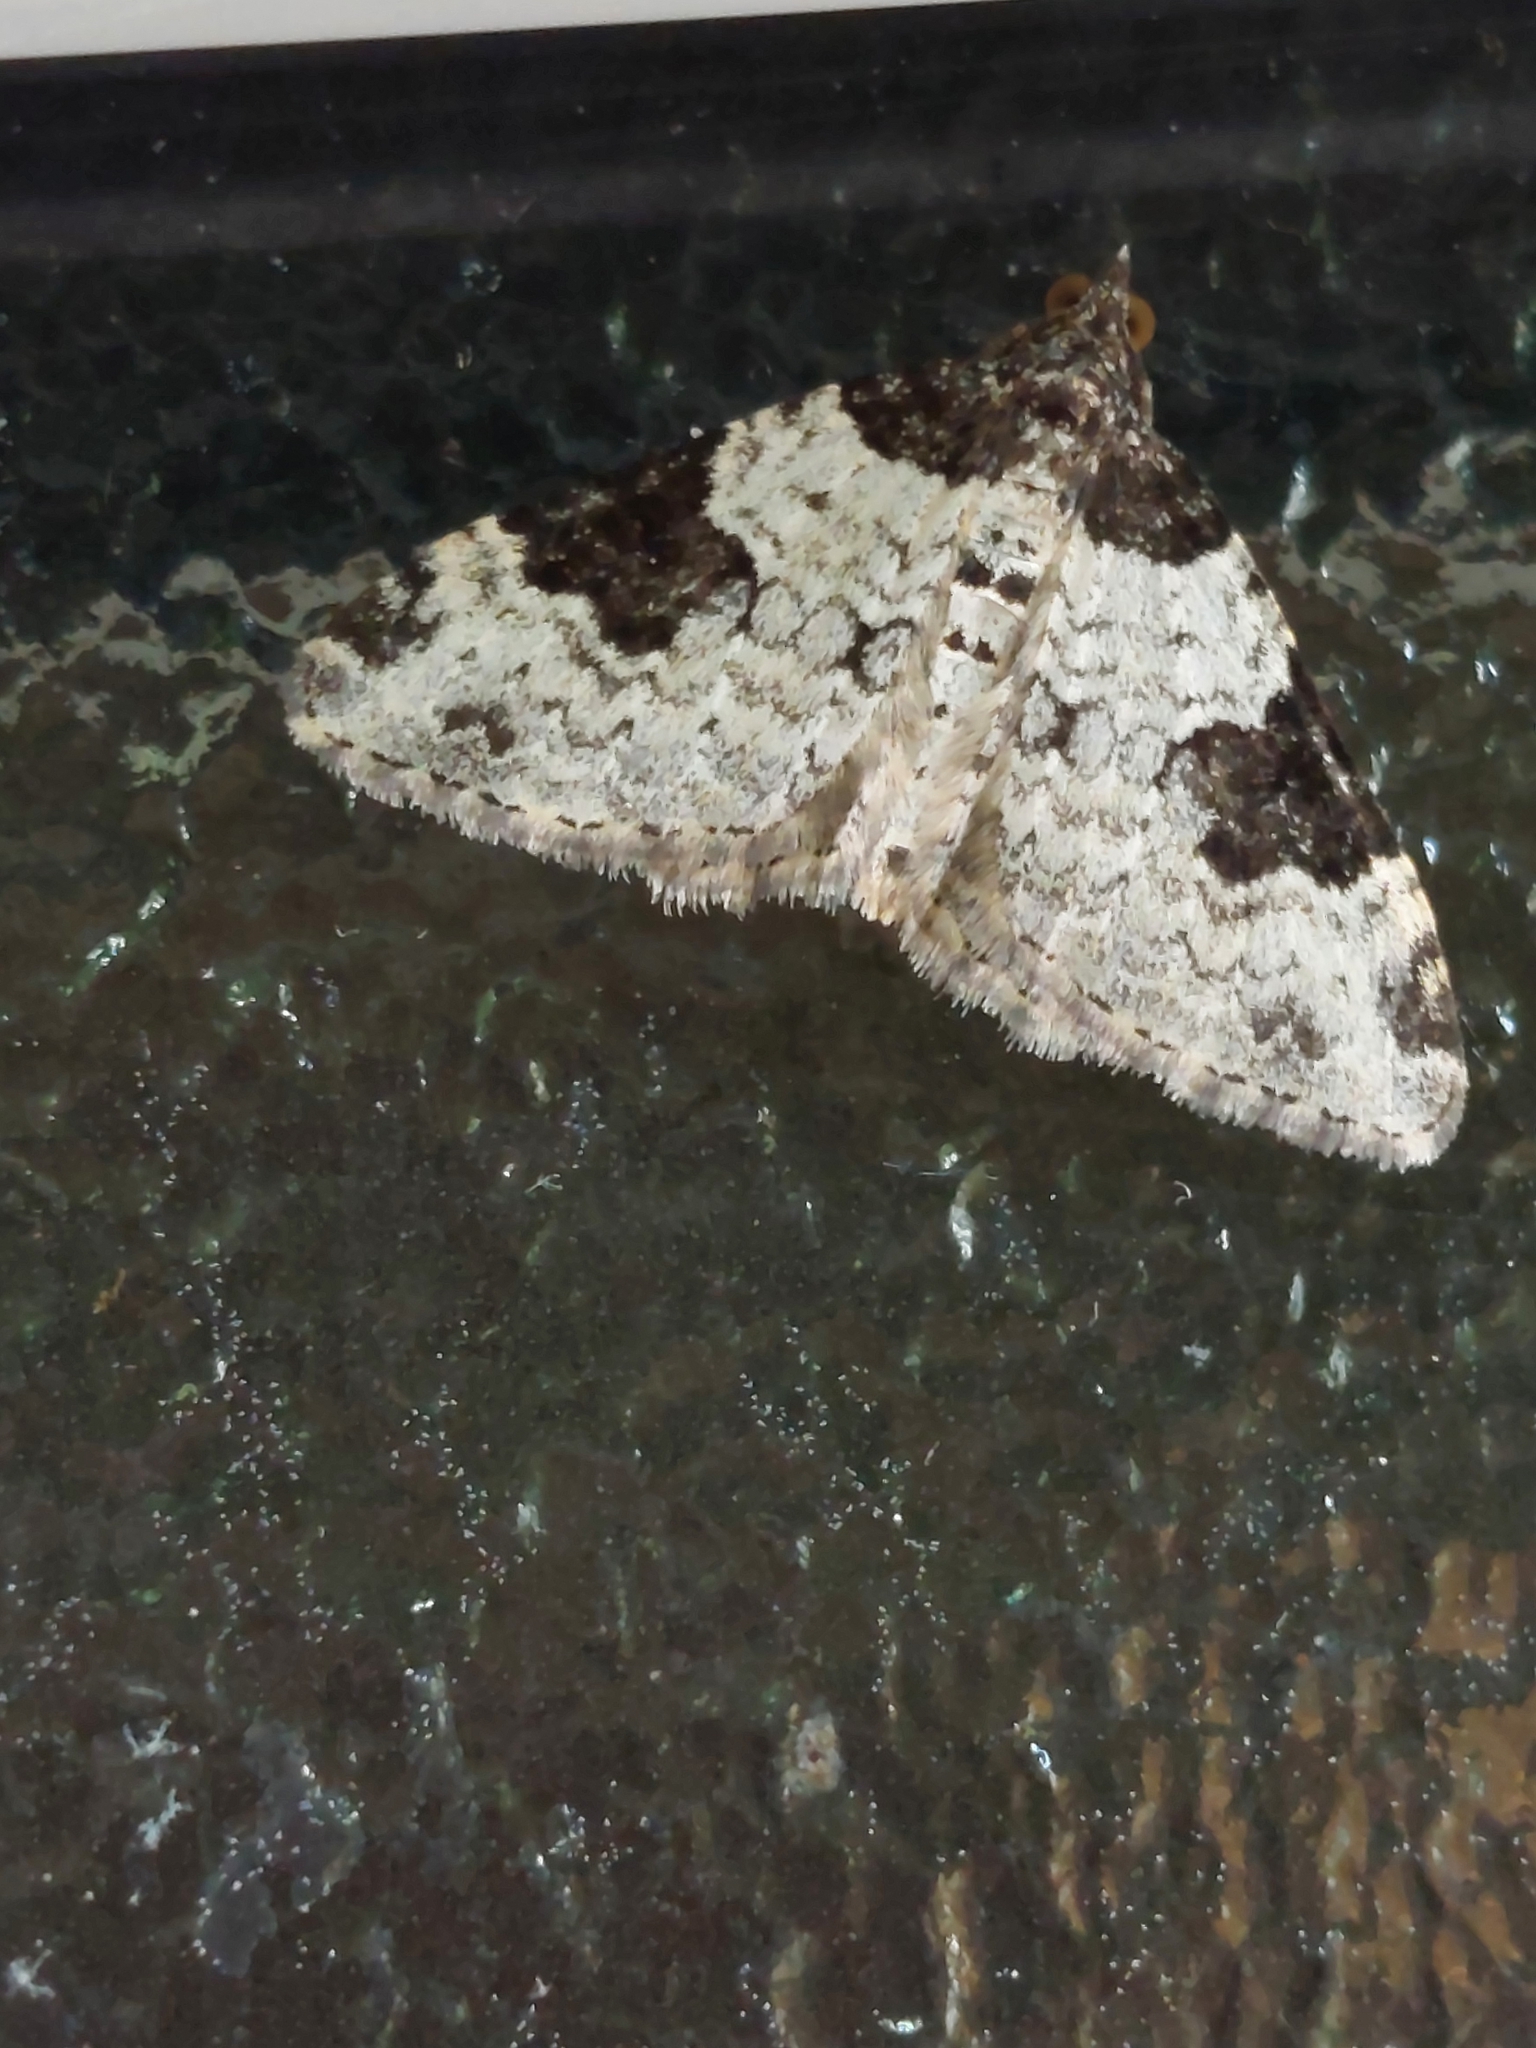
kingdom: Animalia
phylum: Arthropoda
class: Insecta
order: Lepidoptera
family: Geometridae
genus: Xanthorhoe
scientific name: Xanthorhoe fluctuata
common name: Garden carpet
